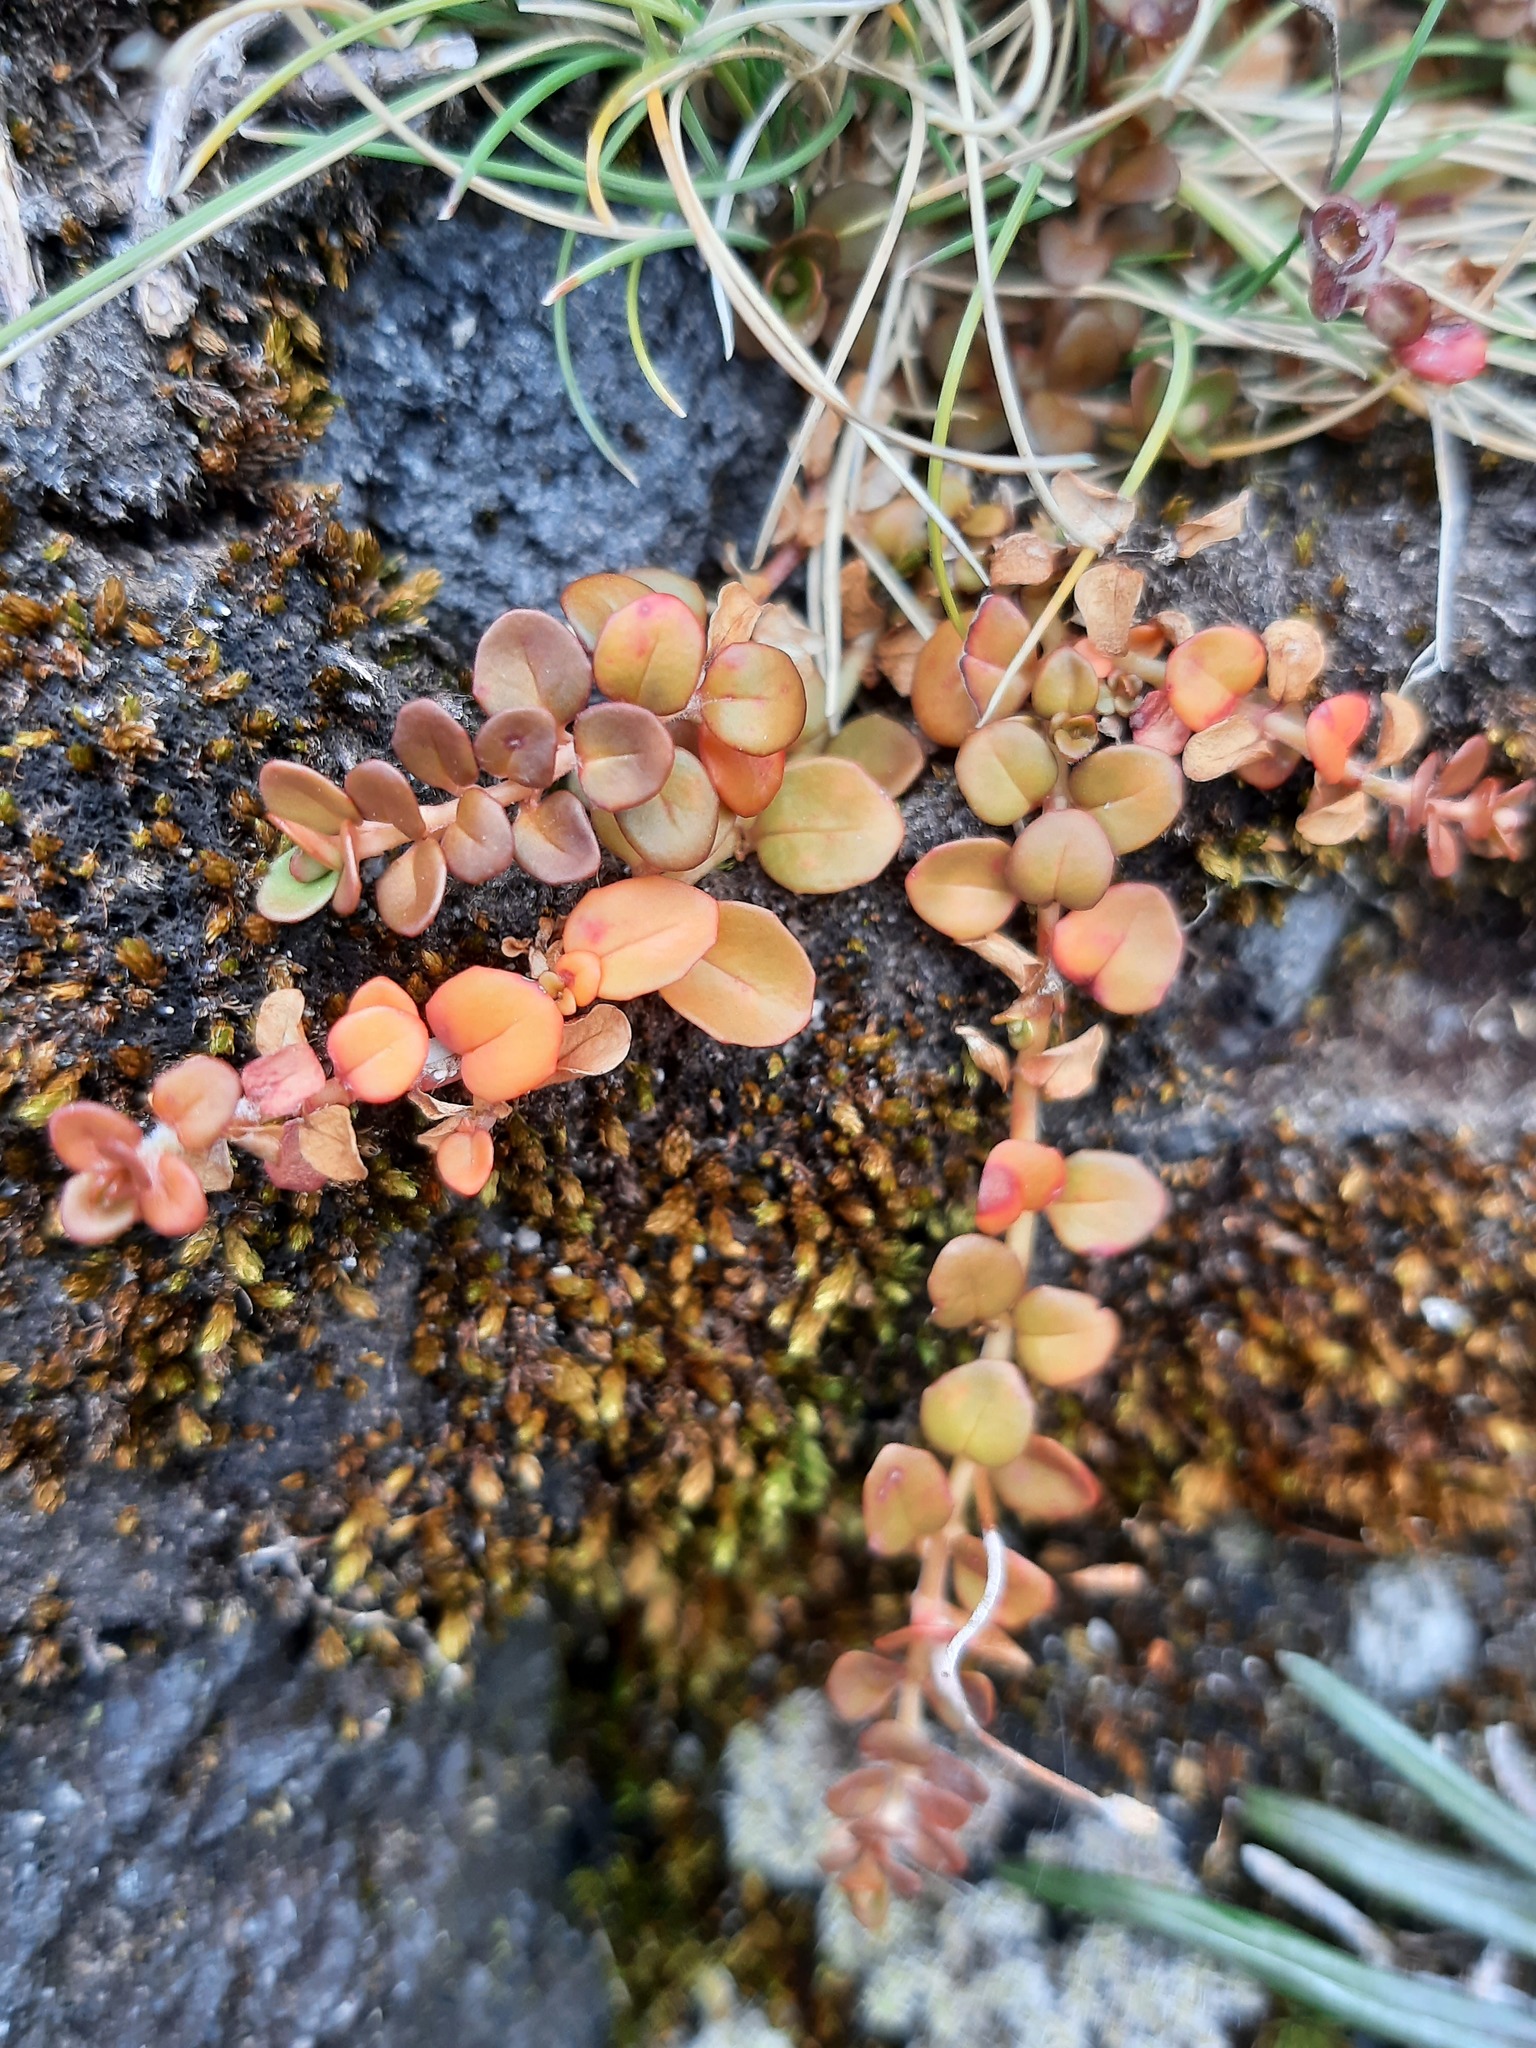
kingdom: Plantae
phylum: Tracheophyta
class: Magnoliopsida
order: Myrtales
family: Onagraceae
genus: Epilobium
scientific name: Epilobium brunnescens
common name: New zealand willowherb
